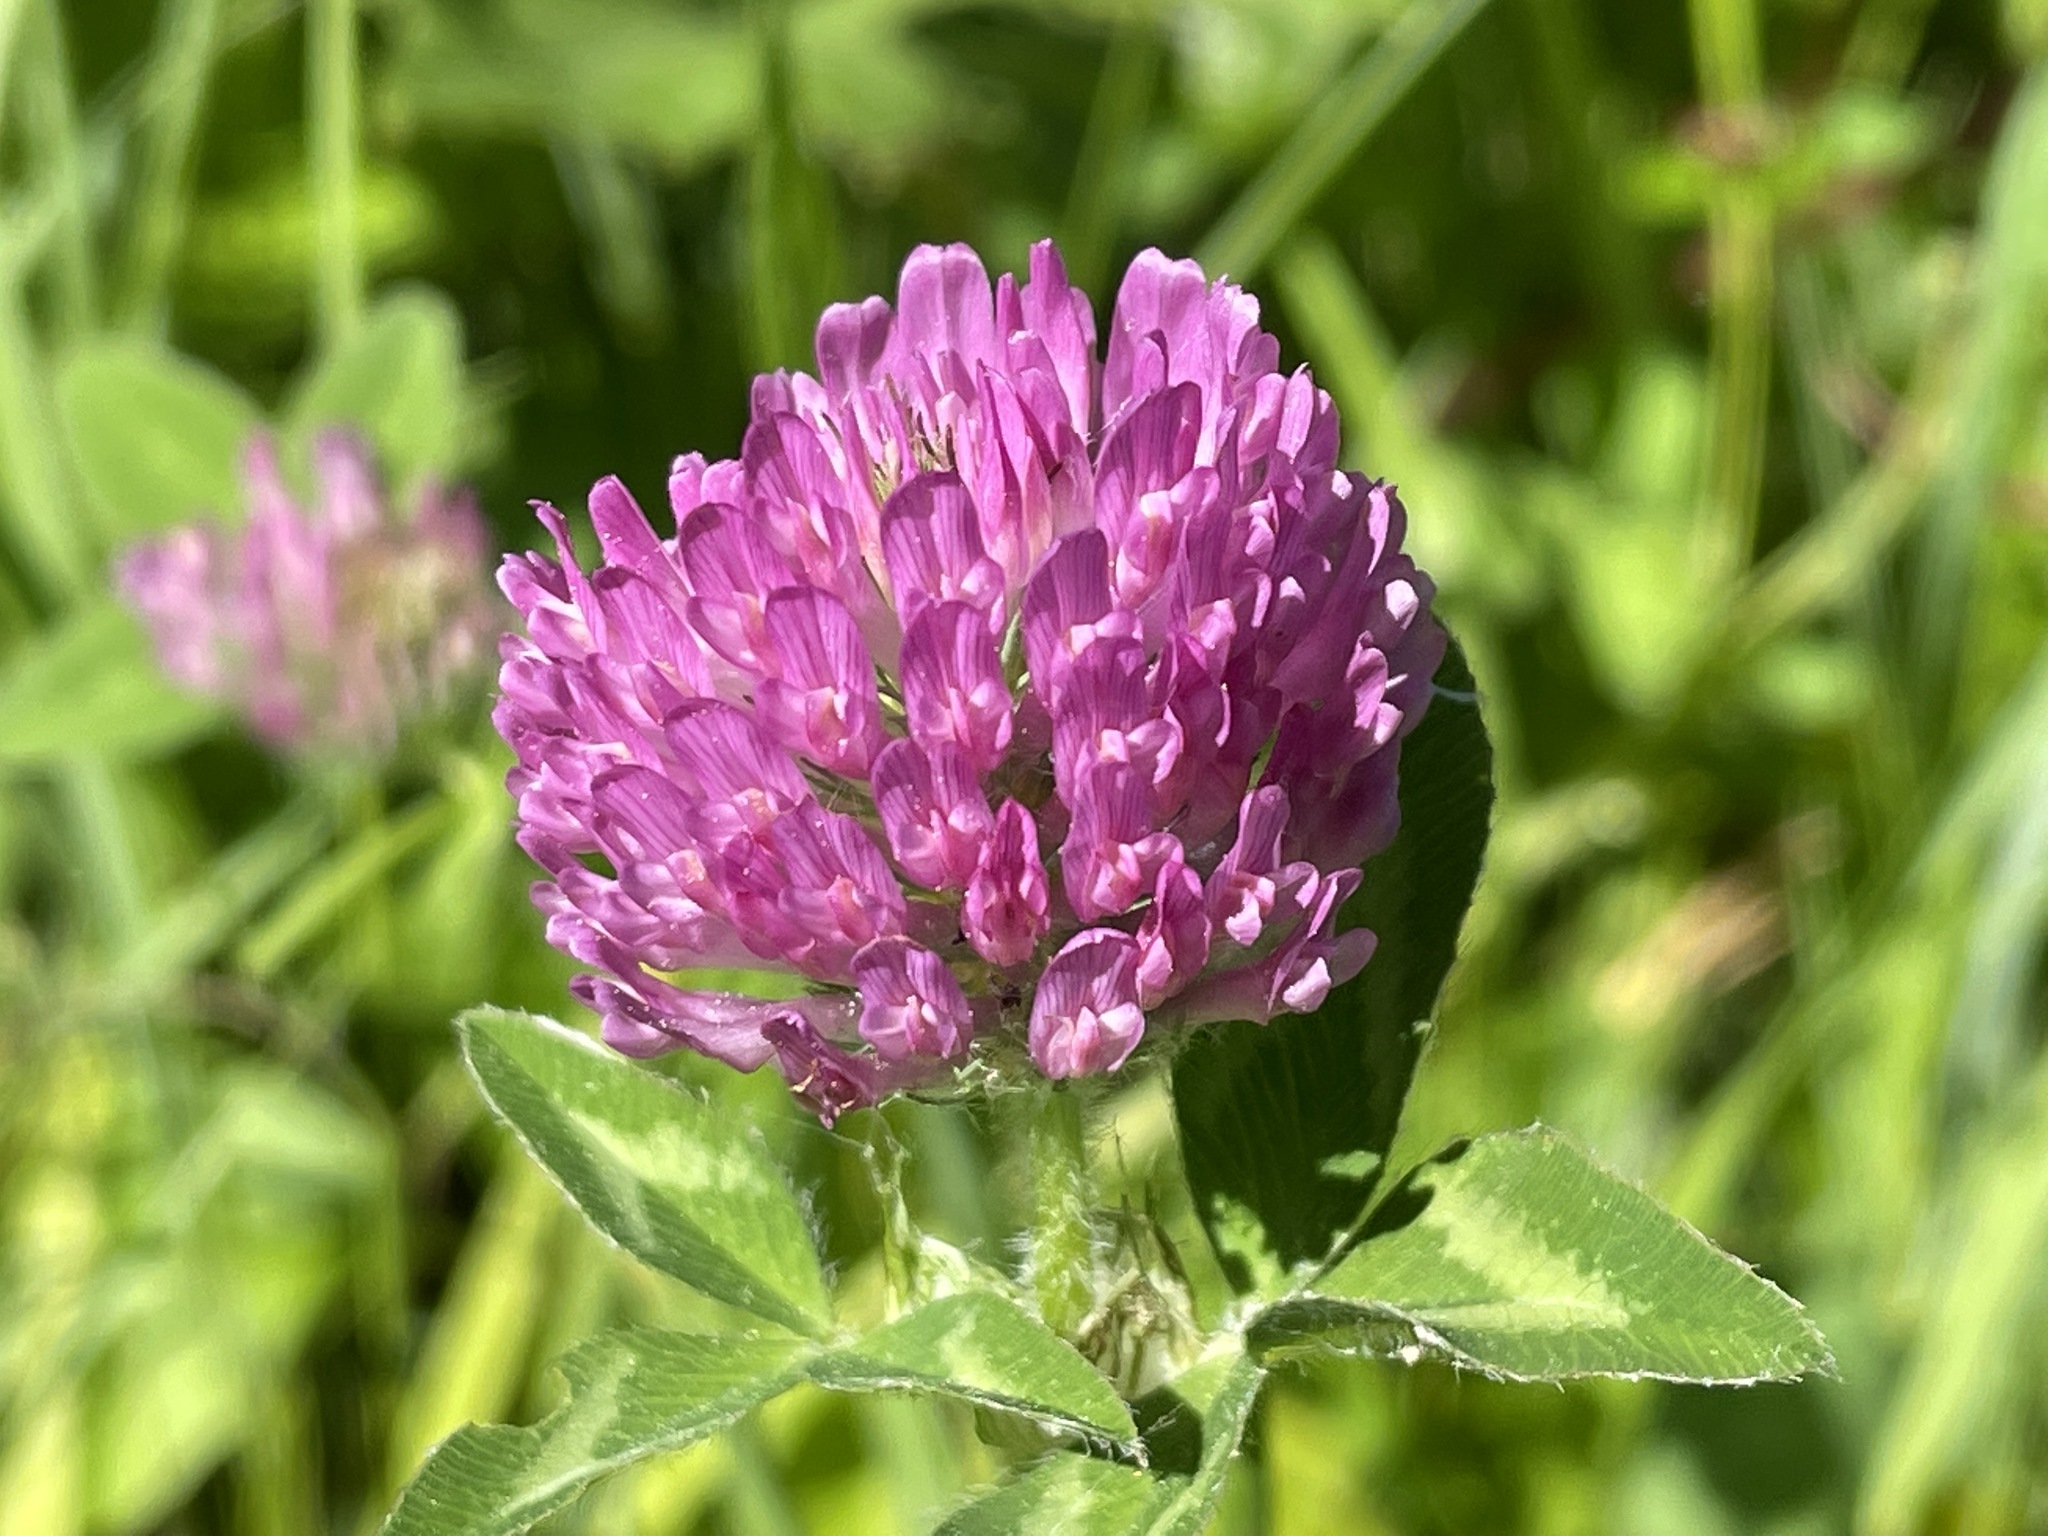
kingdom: Plantae
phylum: Tracheophyta
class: Magnoliopsida
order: Fabales
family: Fabaceae
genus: Trifolium
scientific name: Trifolium pratense
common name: Red clover
